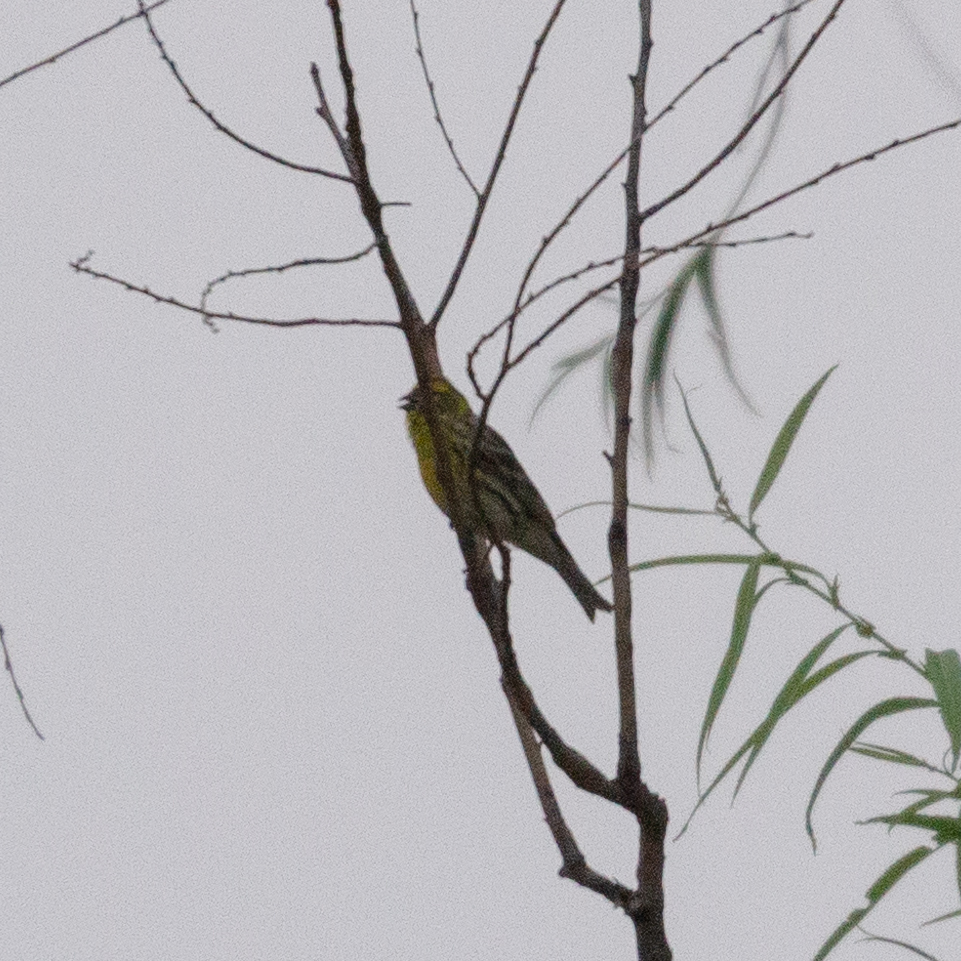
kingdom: Animalia
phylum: Chordata
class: Aves
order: Passeriformes
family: Fringillidae
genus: Serinus
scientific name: Serinus serinus
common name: European serin
